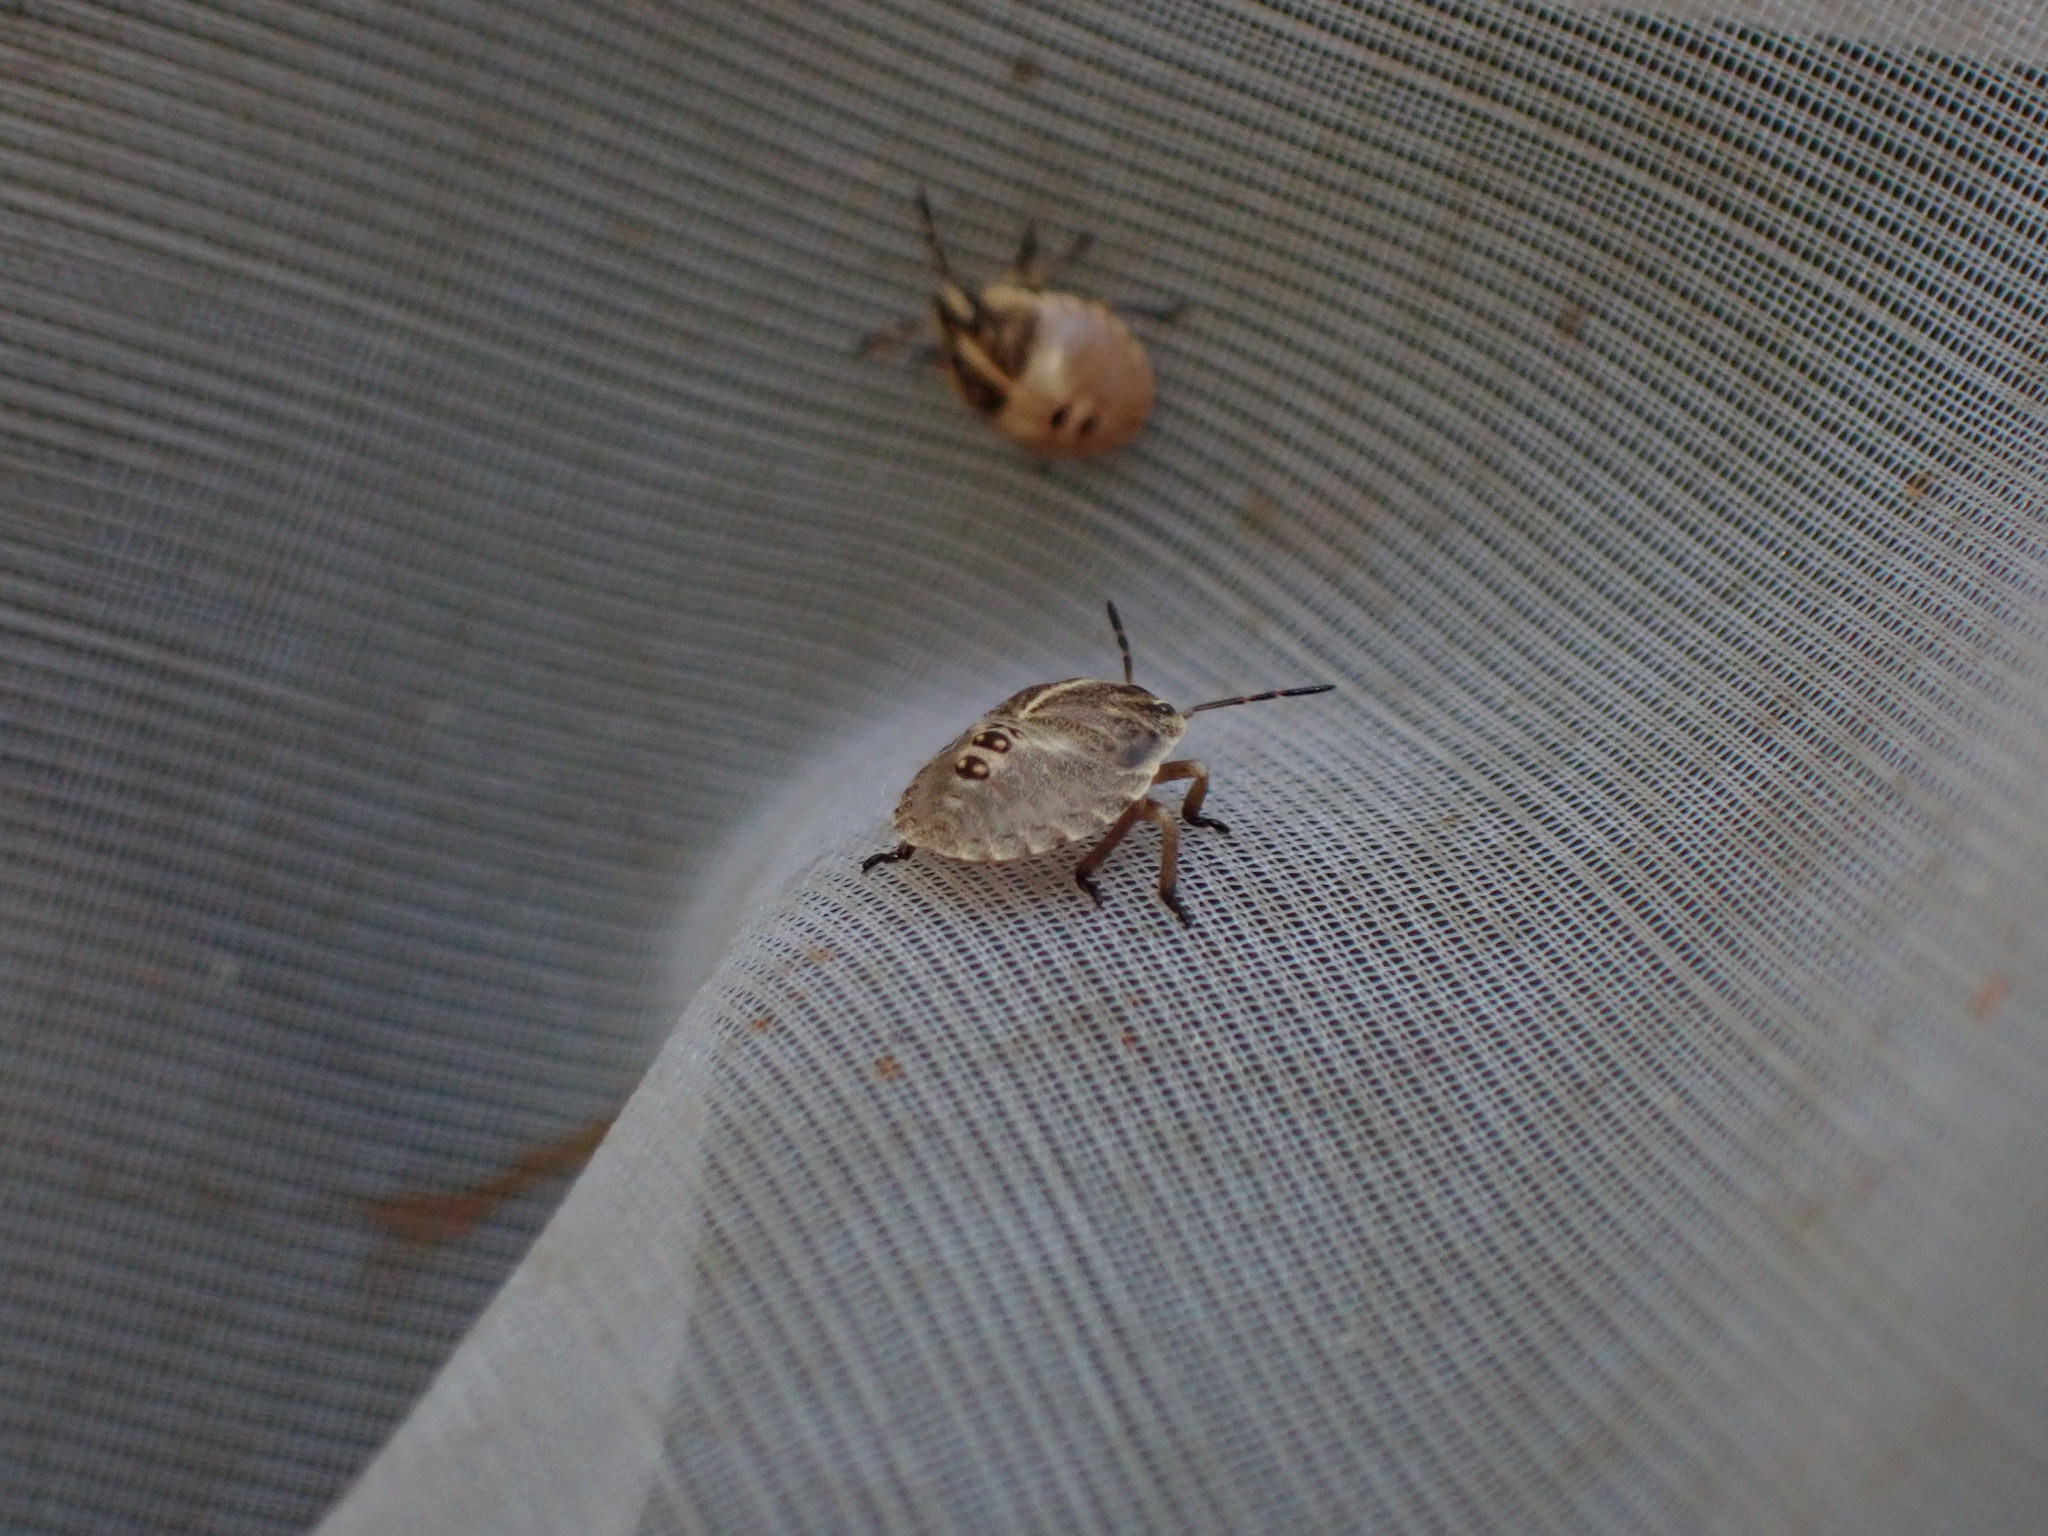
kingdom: Animalia
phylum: Arthropoda
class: Insecta
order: Hemiptera
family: Pentatomidae
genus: Graphosoma
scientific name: Graphosoma italicum
